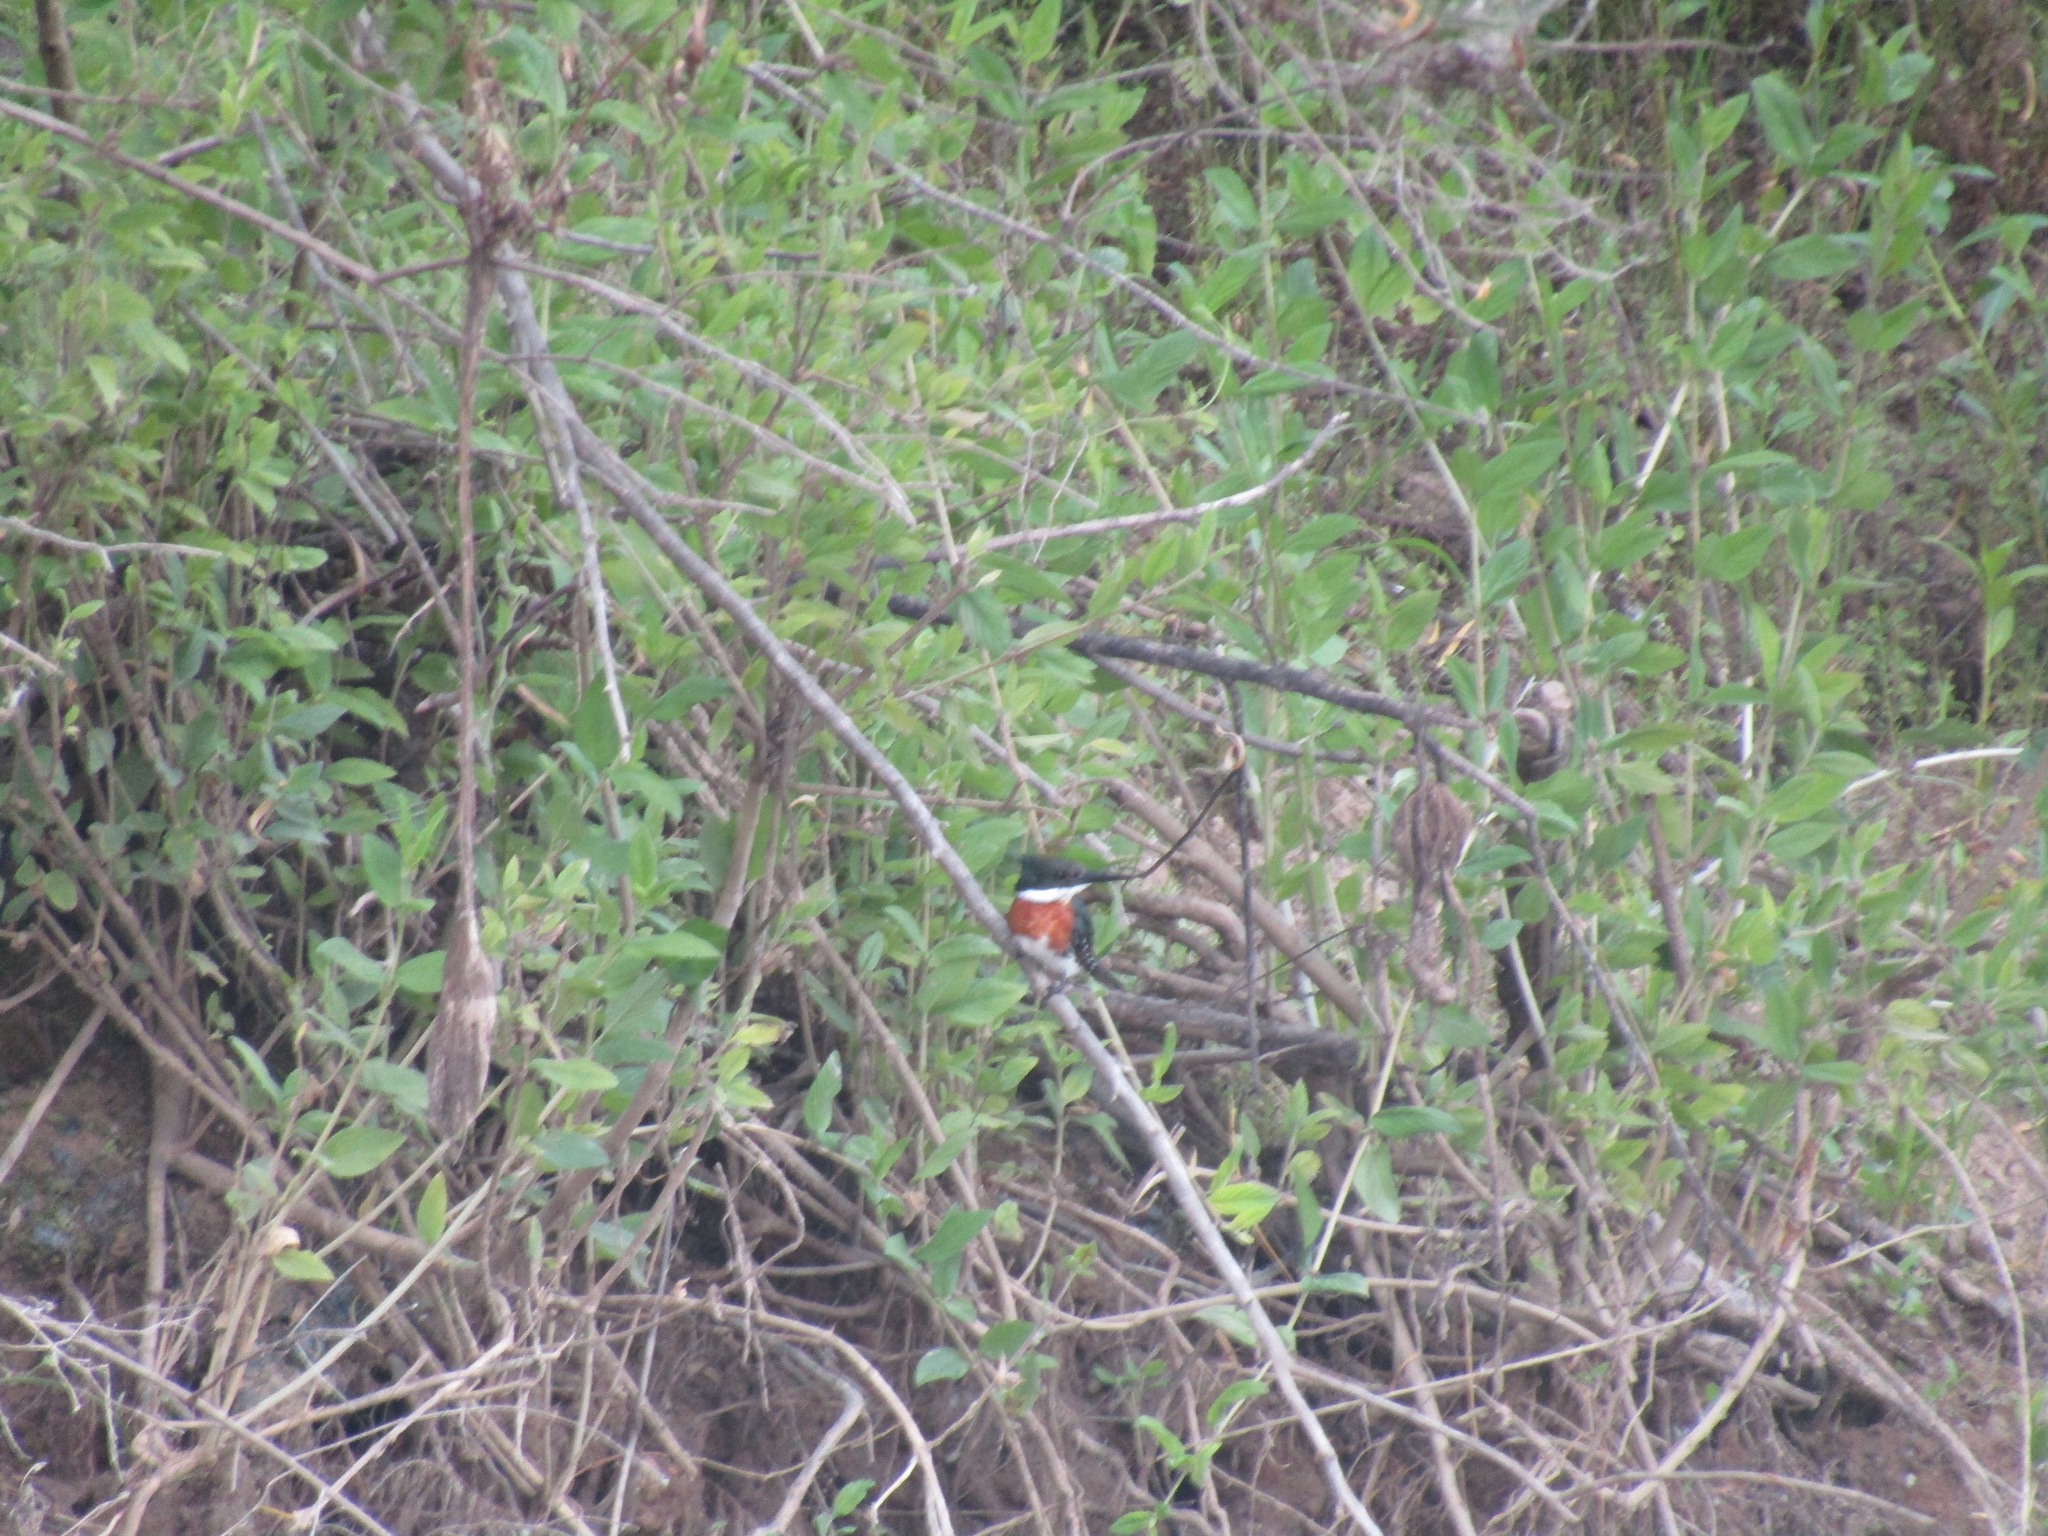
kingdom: Animalia
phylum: Chordata
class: Aves
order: Coraciiformes
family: Alcedinidae
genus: Chloroceryle
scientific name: Chloroceryle americana
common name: Green kingfisher
